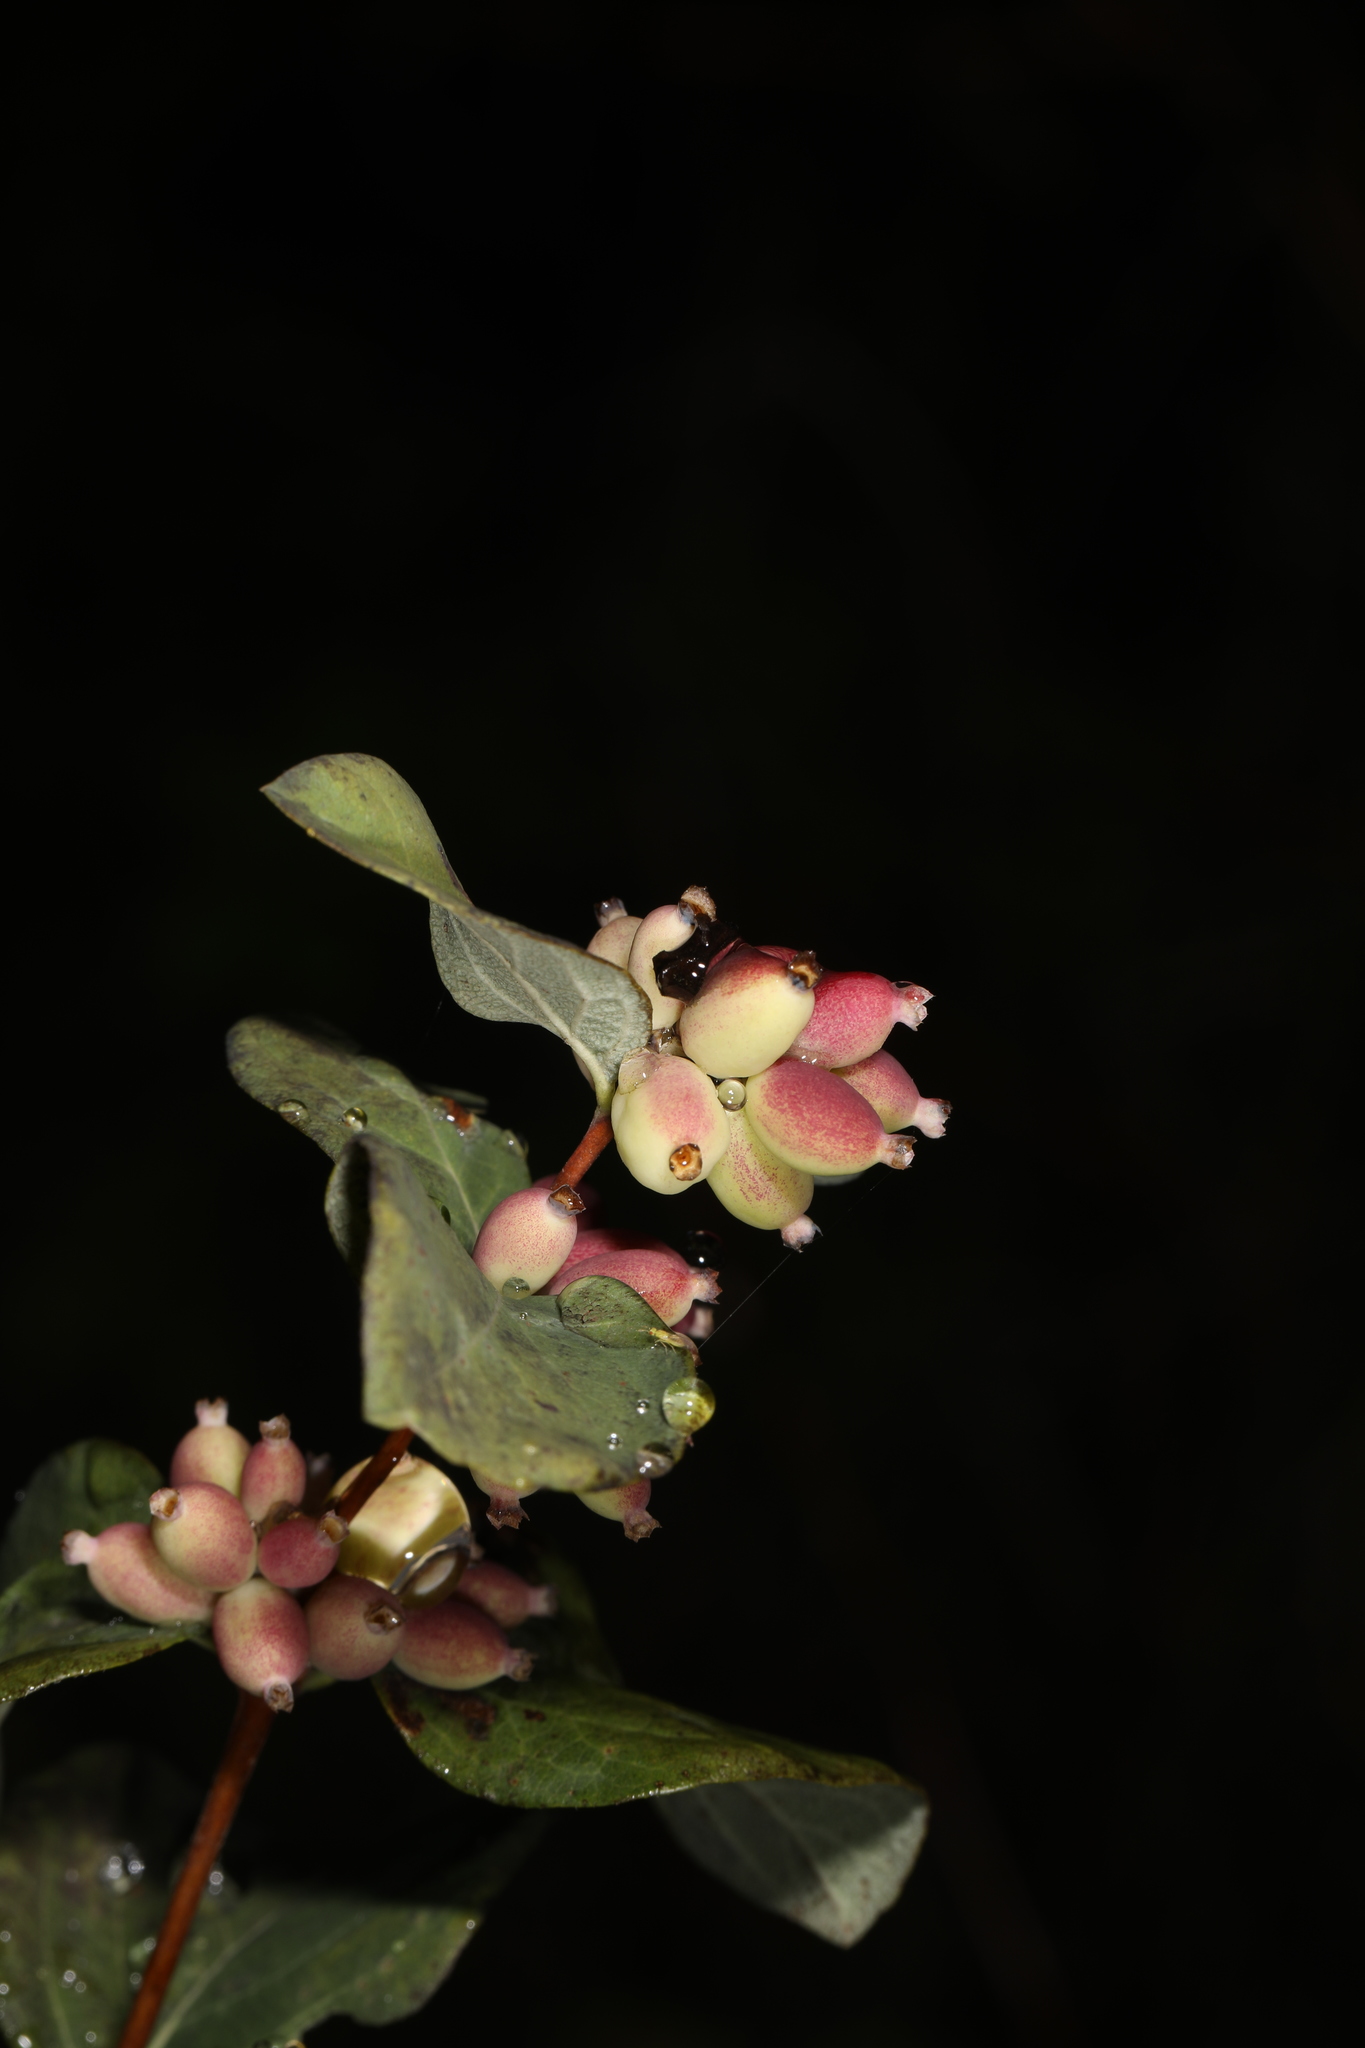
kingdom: Plantae
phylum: Tracheophyta
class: Magnoliopsida
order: Dipsacales
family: Caprifoliaceae
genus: Symphoricarpos
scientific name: Symphoricarpos albus
